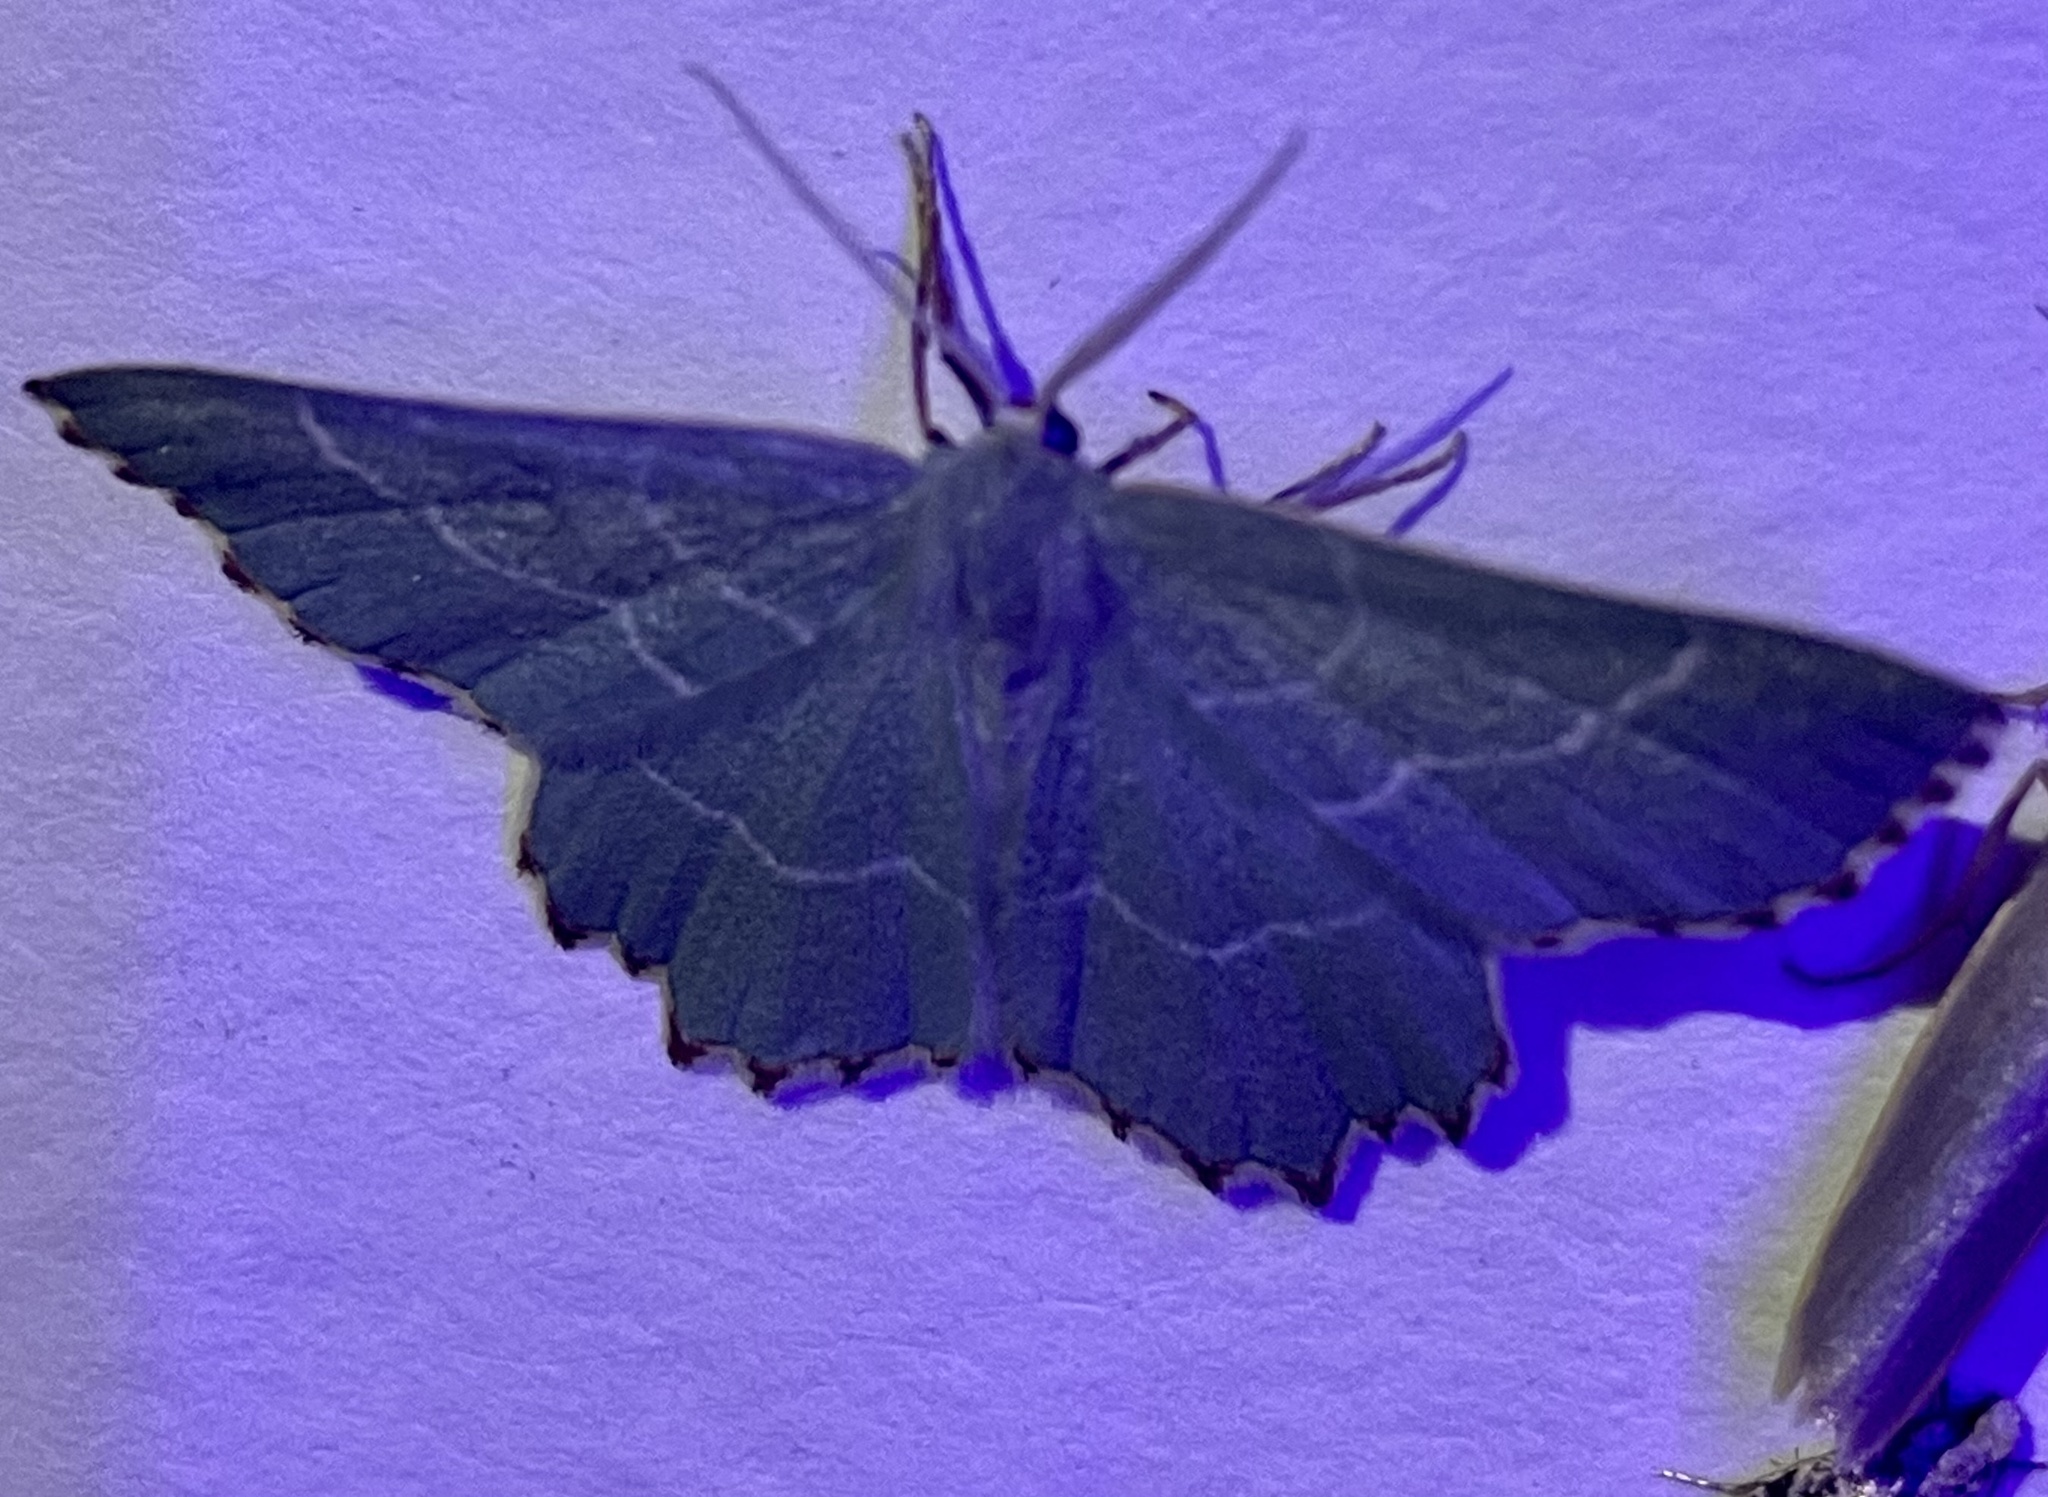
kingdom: Animalia
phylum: Arthropoda
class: Insecta
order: Lepidoptera
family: Geometridae
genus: Thalera
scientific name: Thalera fimbrialis
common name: Sussex emerald
